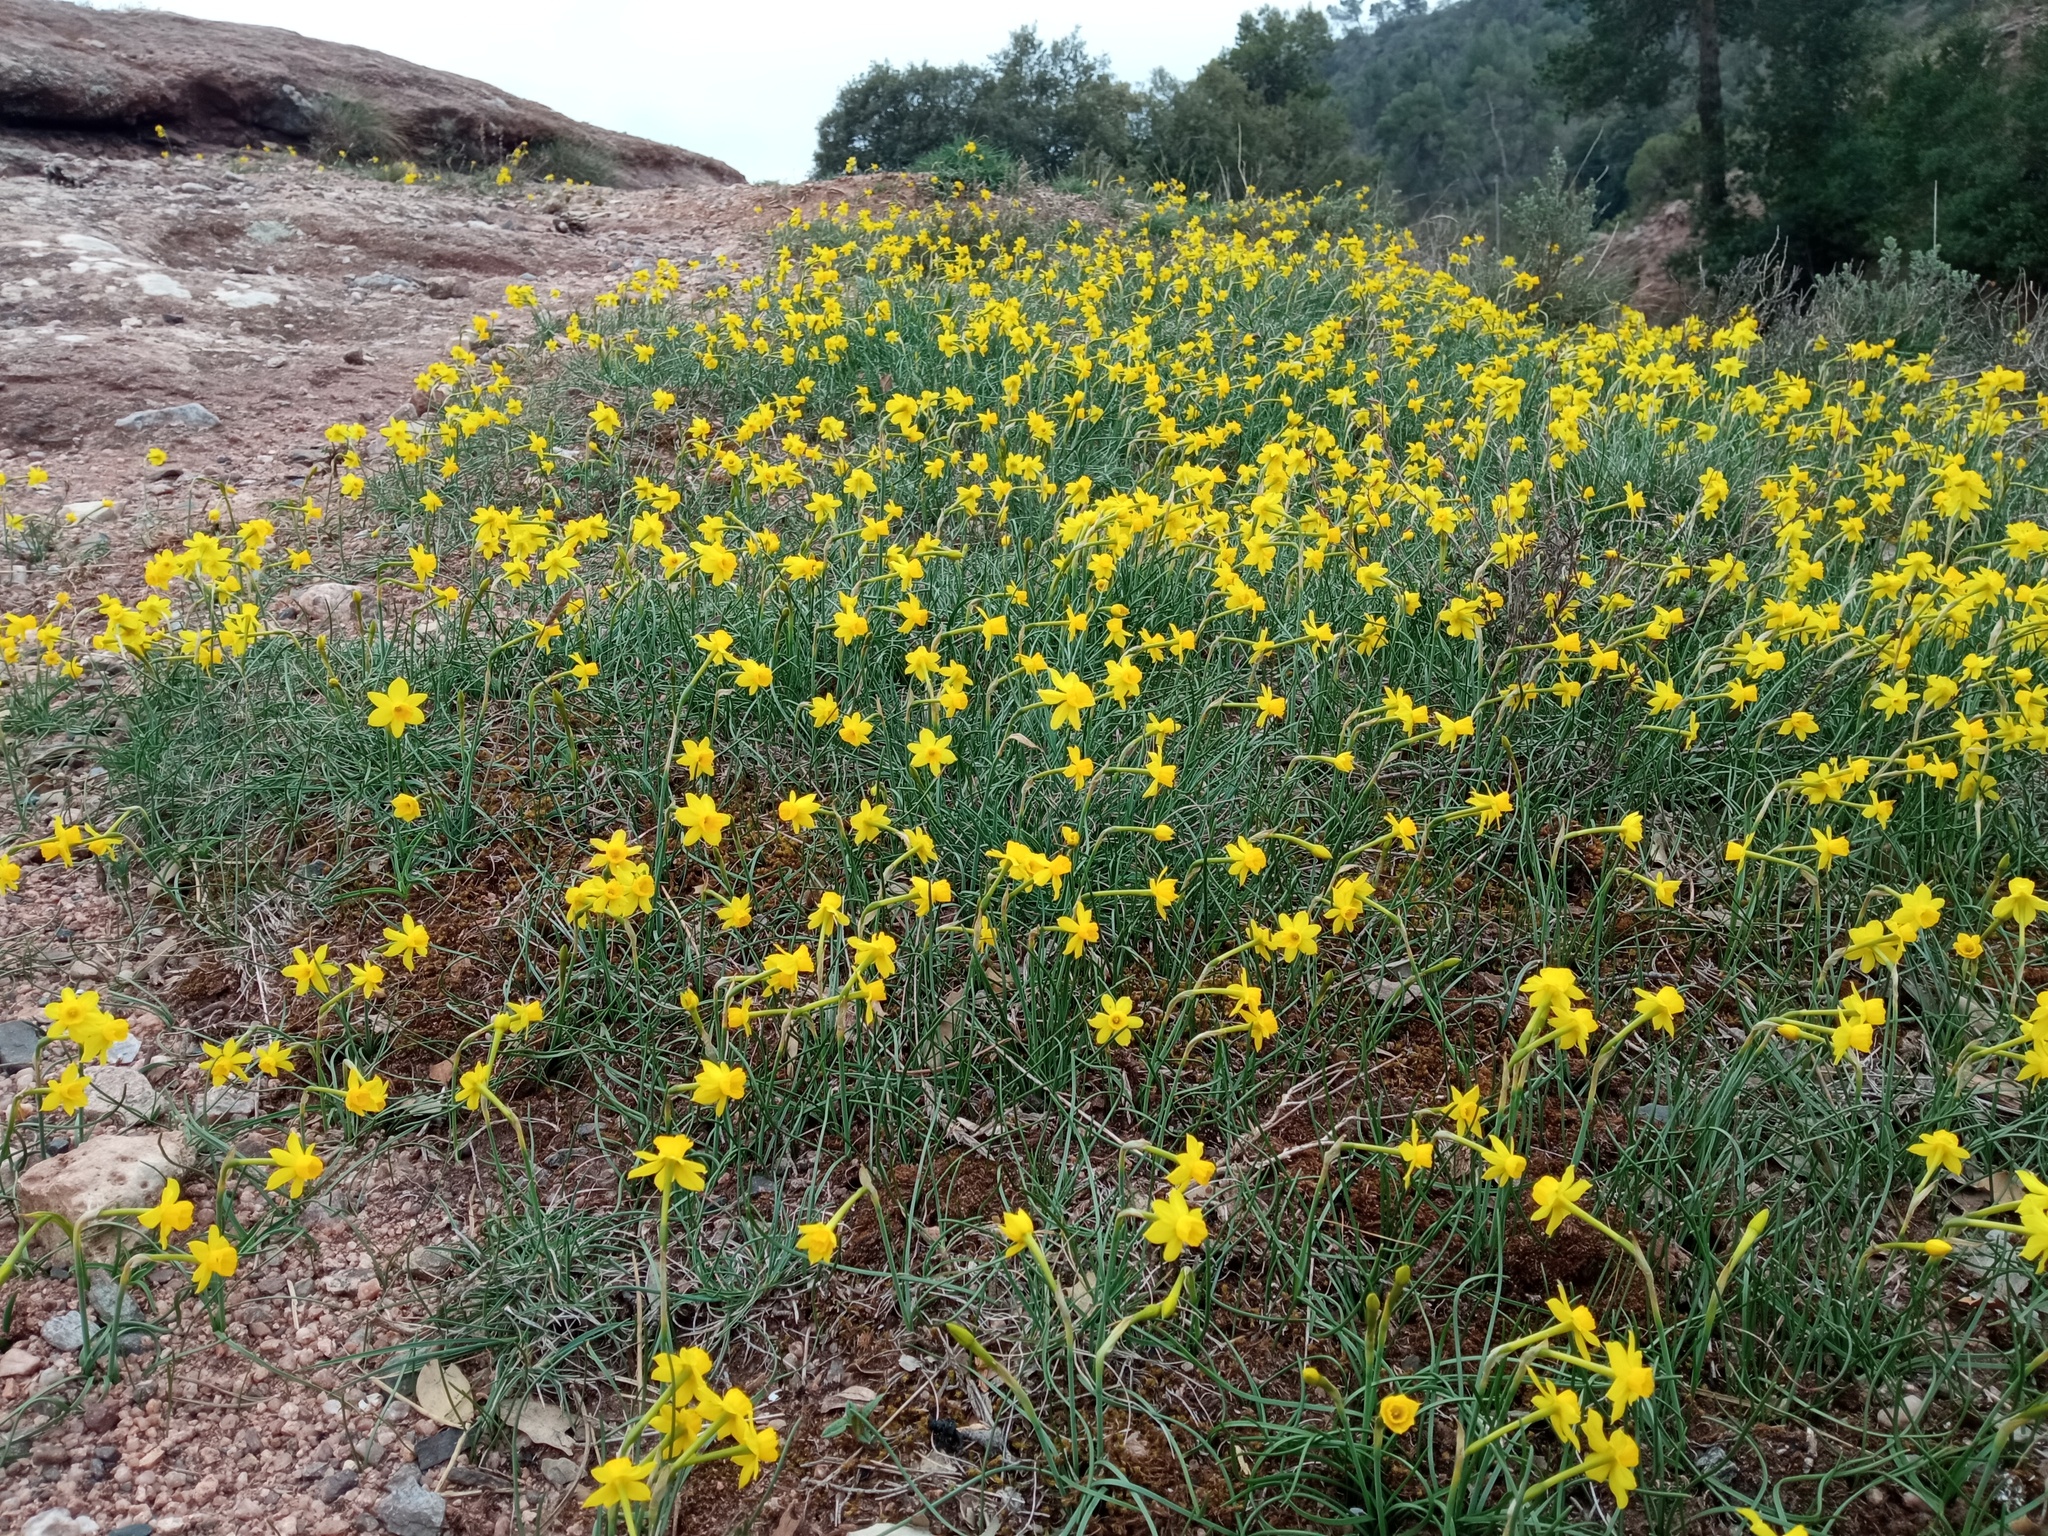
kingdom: Plantae
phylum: Tracheophyta
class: Liliopsida
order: Asparagales
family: Amaryllidaceae
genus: Narcissus
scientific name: Narcissus assoanus
